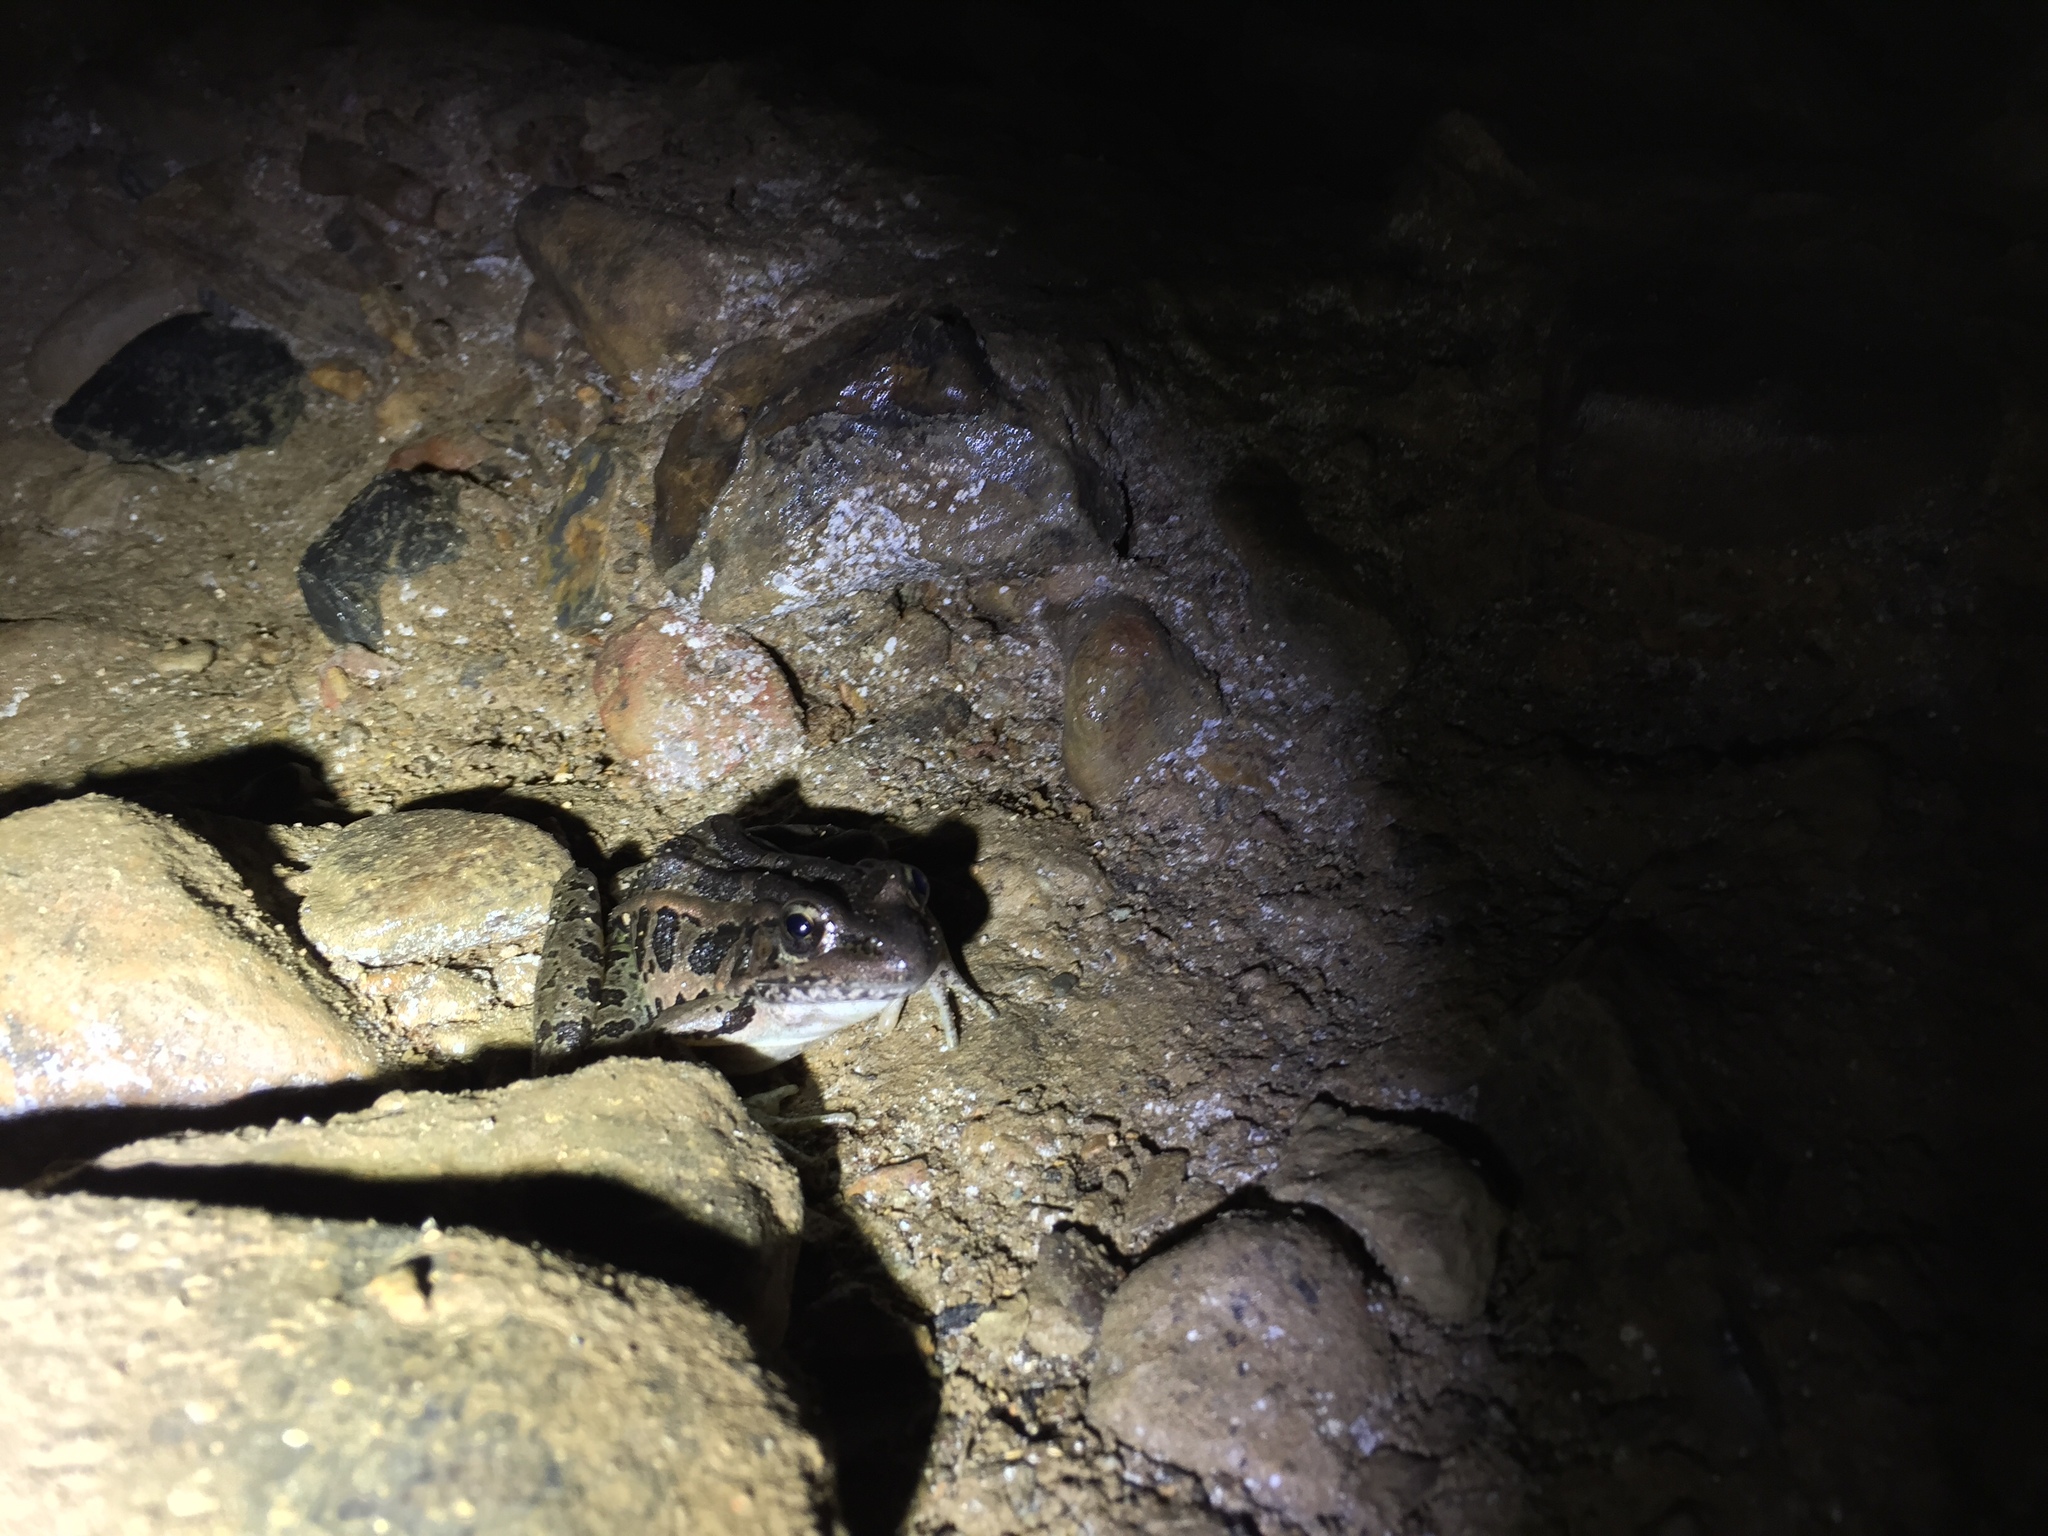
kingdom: Animalia
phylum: Chordata
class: Amphibia
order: Anura
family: Ranidae
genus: Lithobates
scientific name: Lithobates palustris
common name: Pickerel frog
